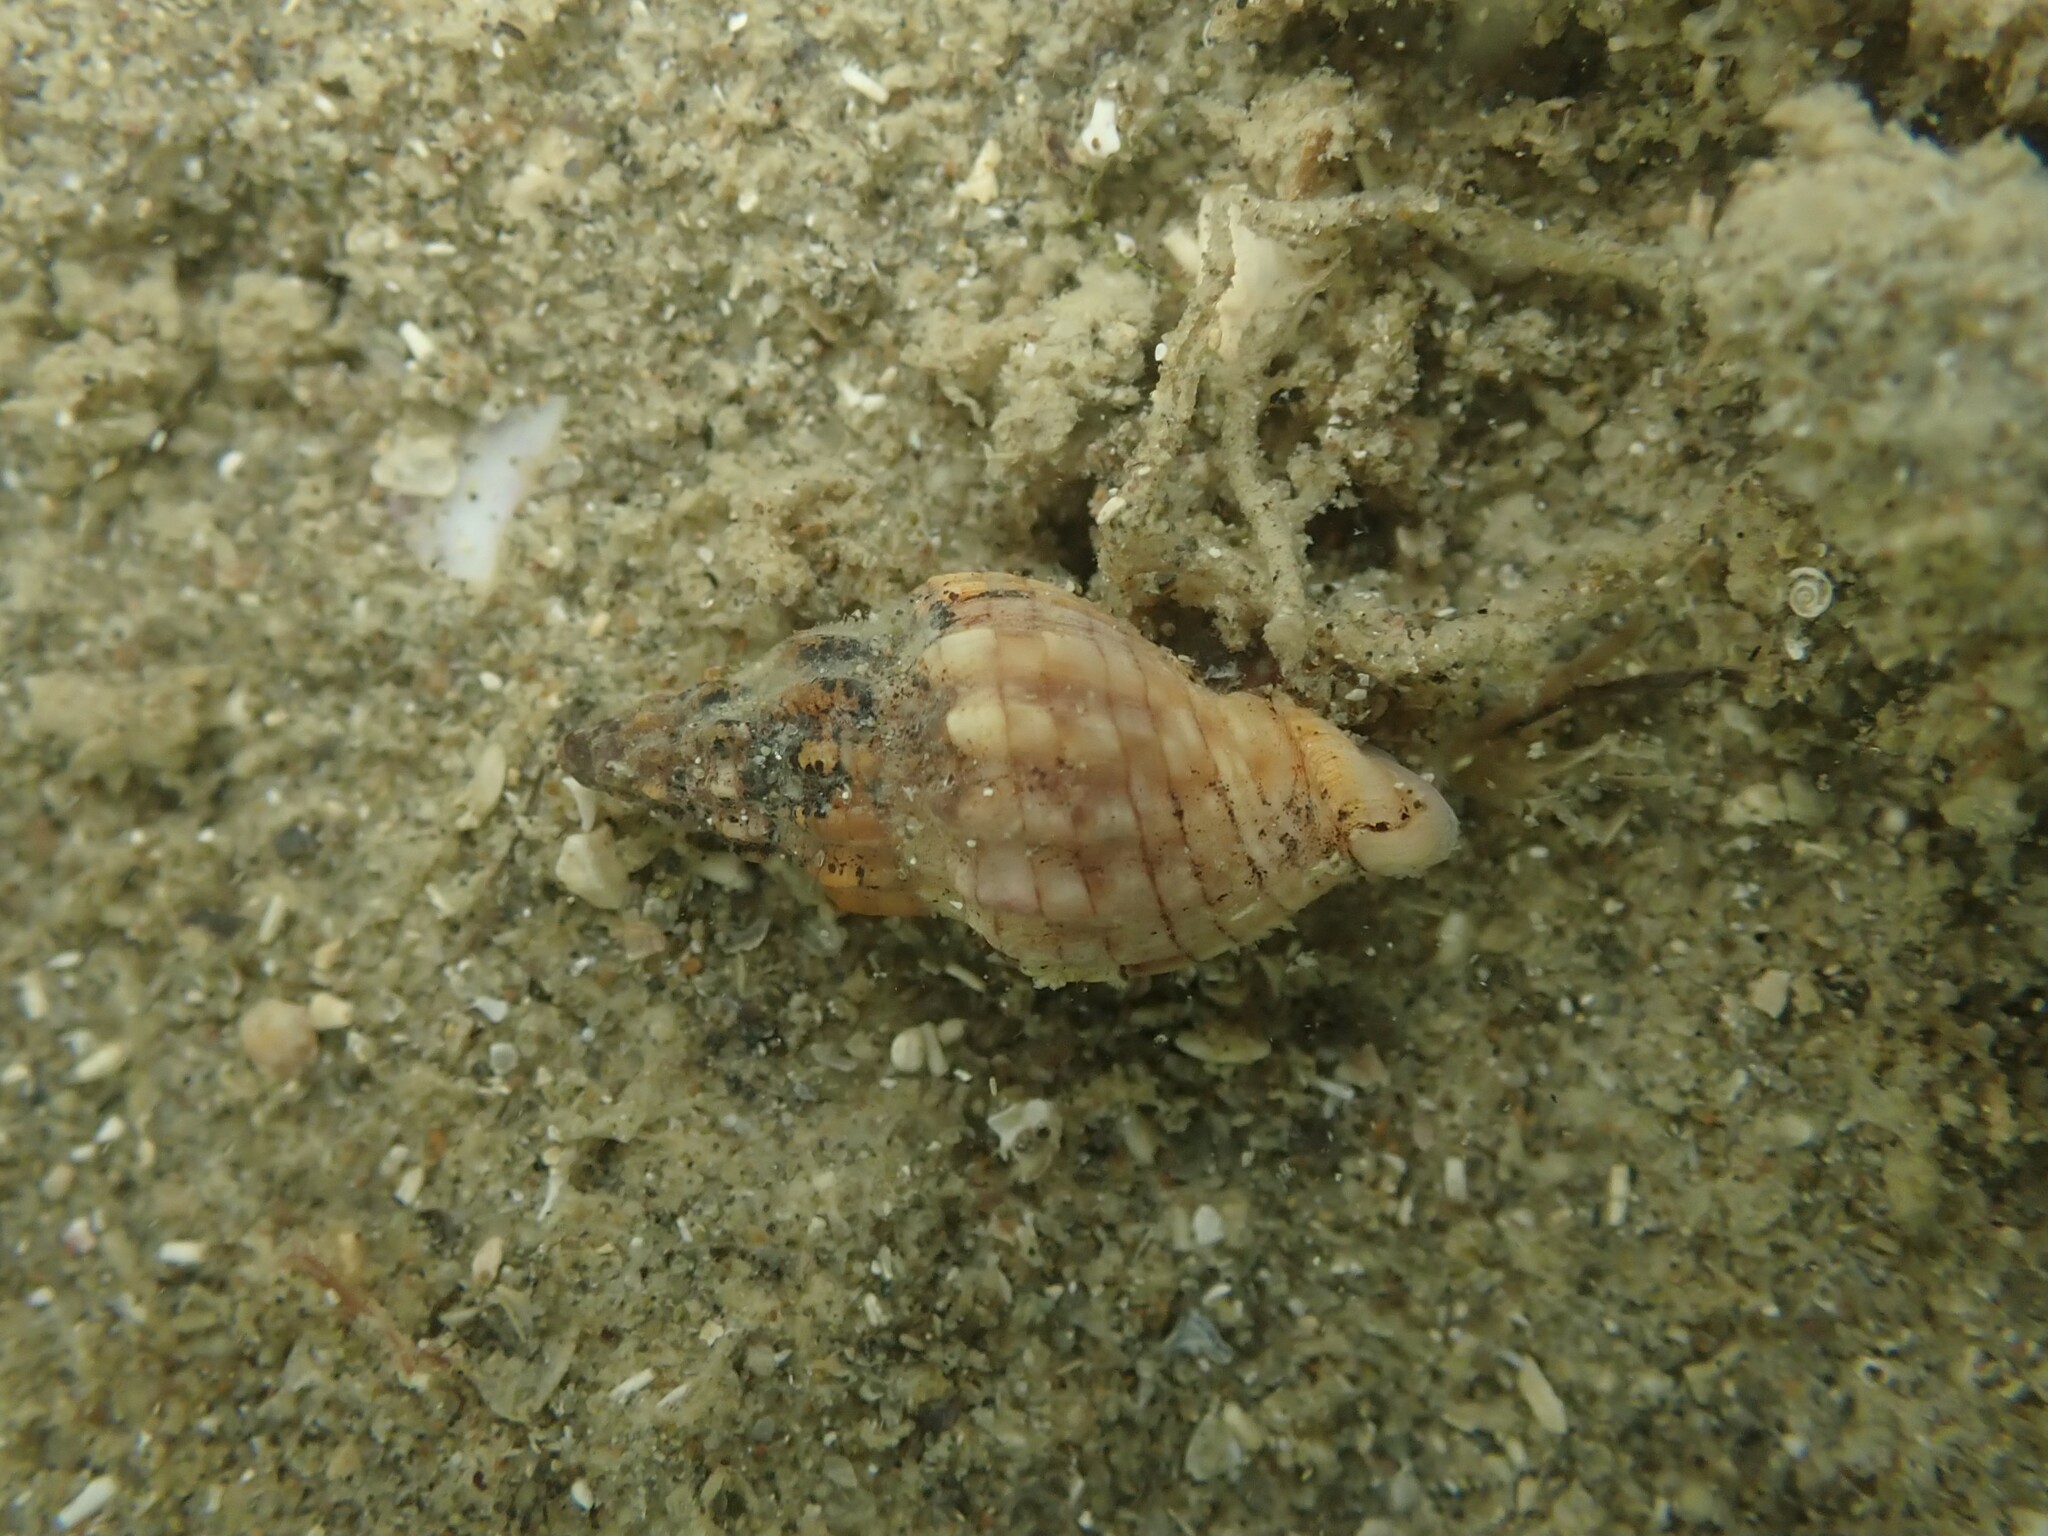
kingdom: Animalia
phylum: Mollusca
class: Gastropoda
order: Neogastropoda
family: Cominellidae
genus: Cominella
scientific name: Cominella quoyana
